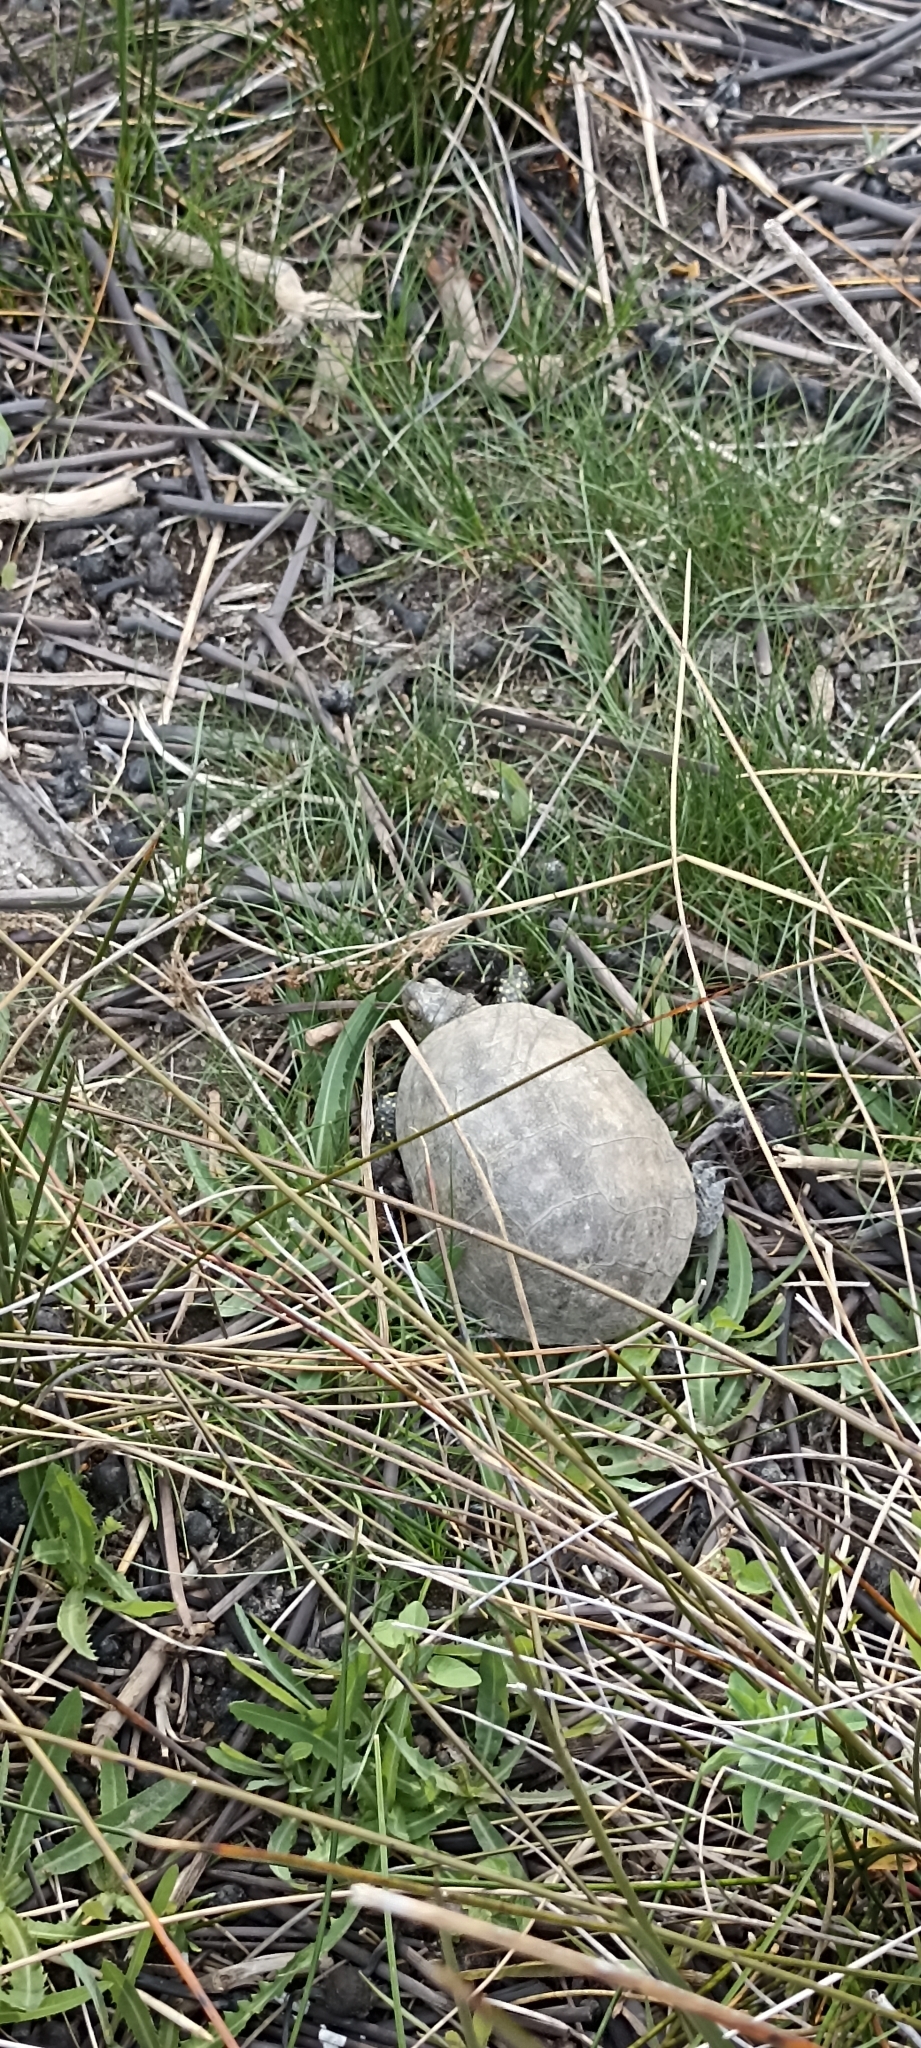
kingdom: Animalia
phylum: Chordata
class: Testudines
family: Emydidae
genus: Emys
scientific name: Emys orbicularis
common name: European pond turtle
